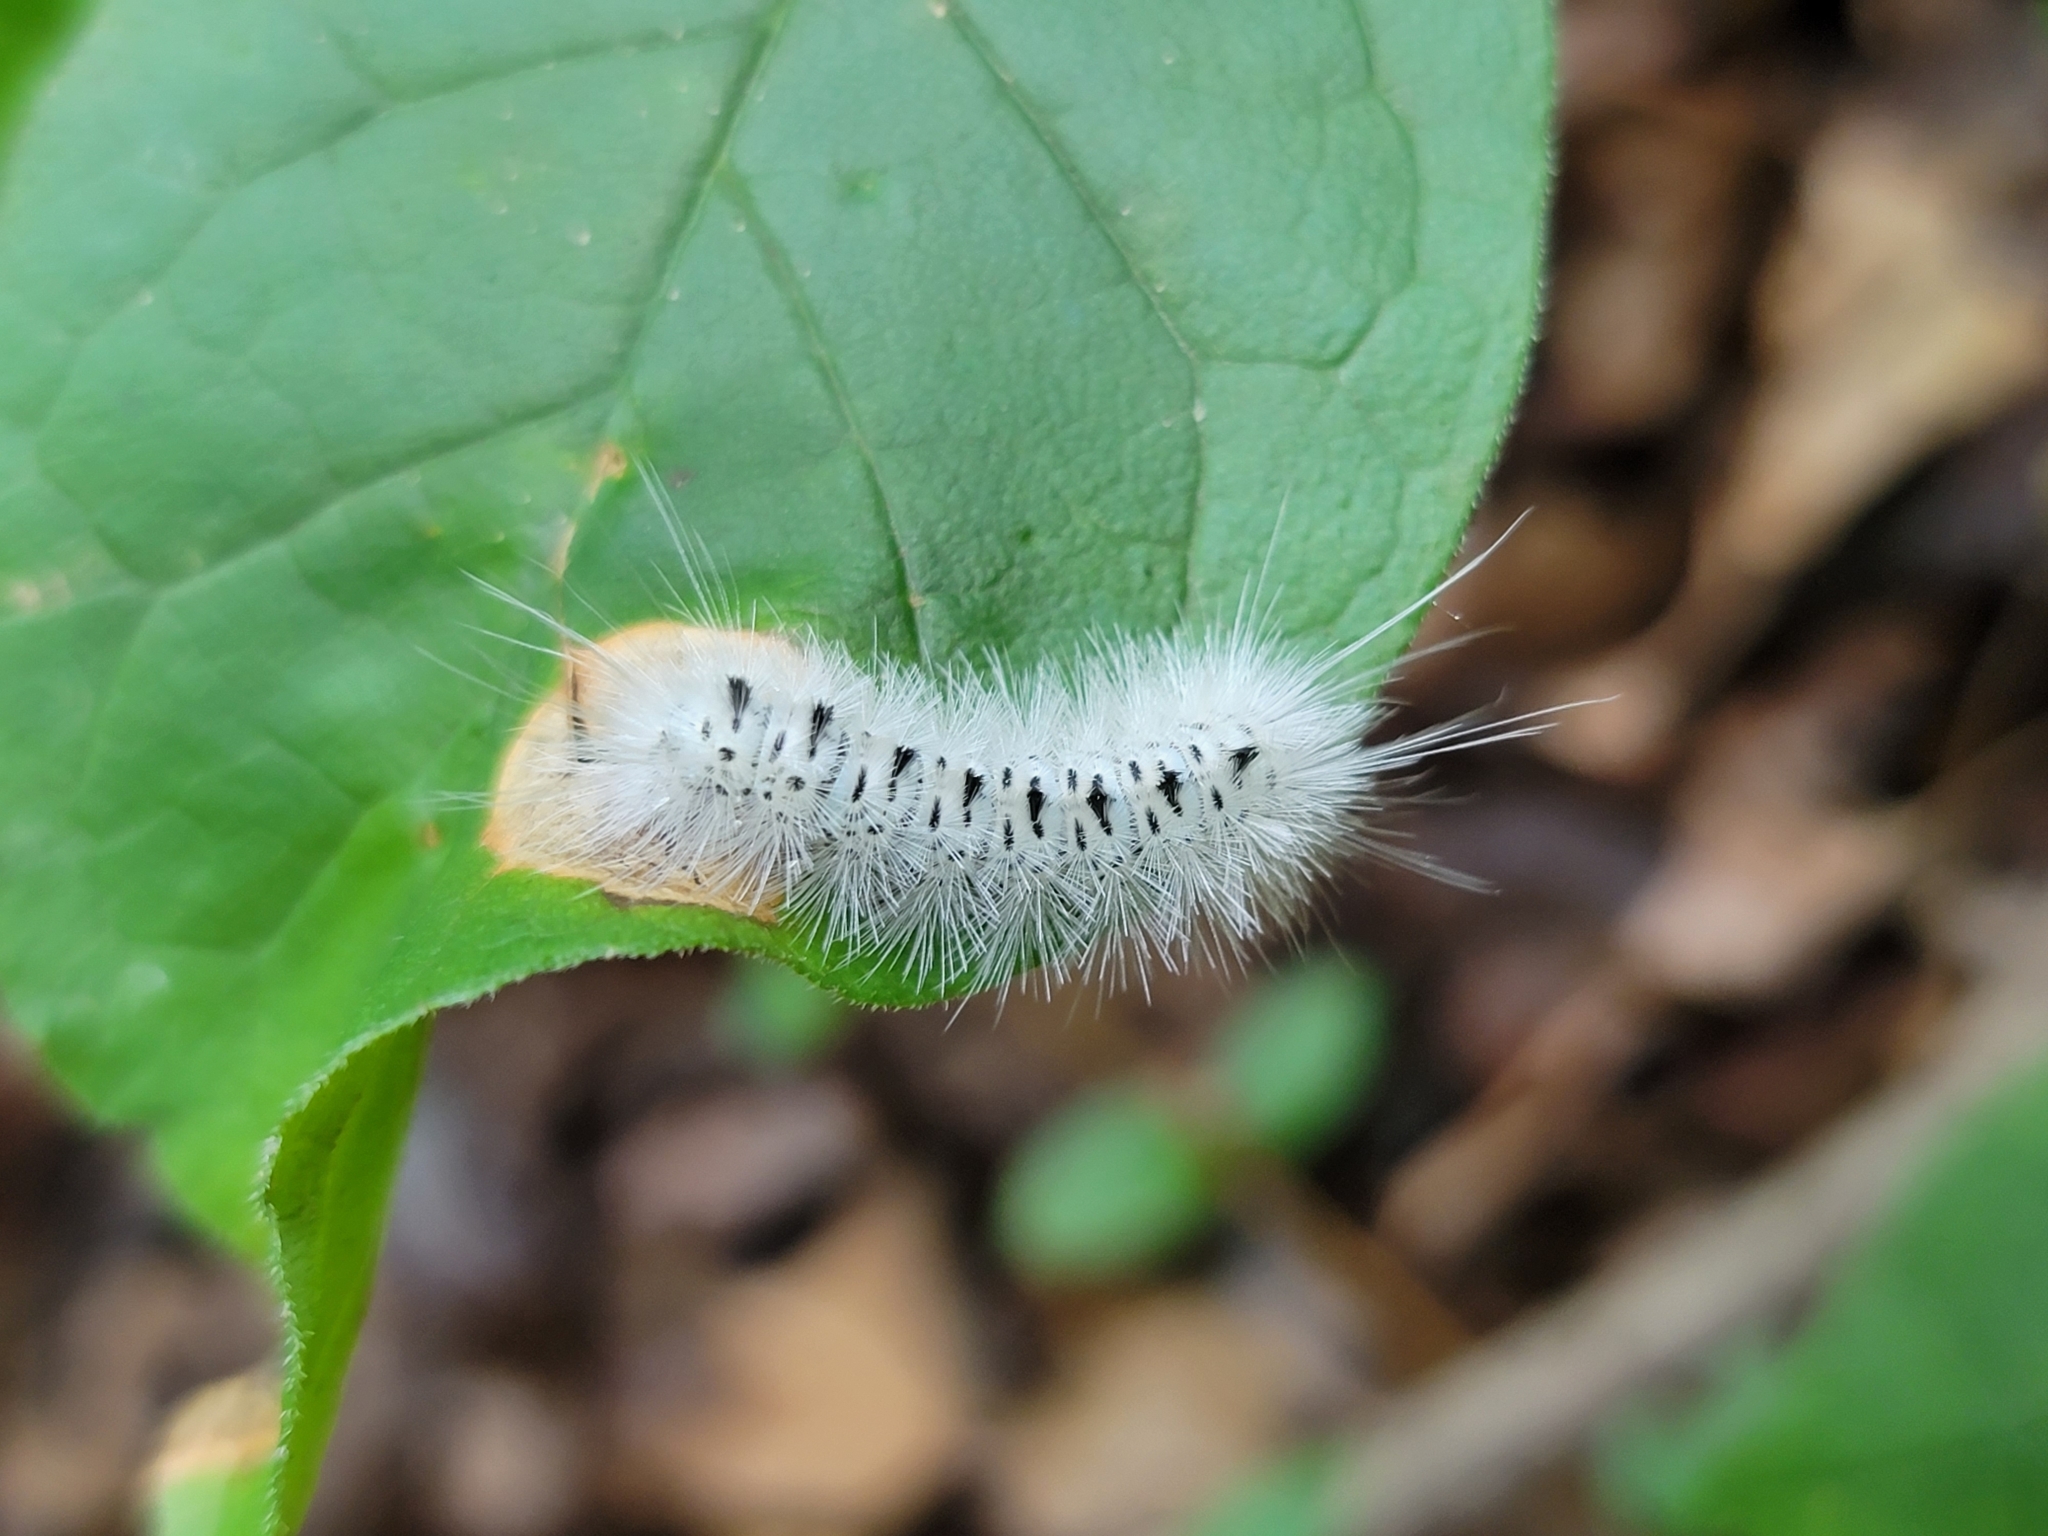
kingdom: Animalia
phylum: Arthropoda
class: Insecta
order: Lepidoptera
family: Erebidae
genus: Lophocampa
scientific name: Lophocampa caryae
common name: Hickory tussock moth
